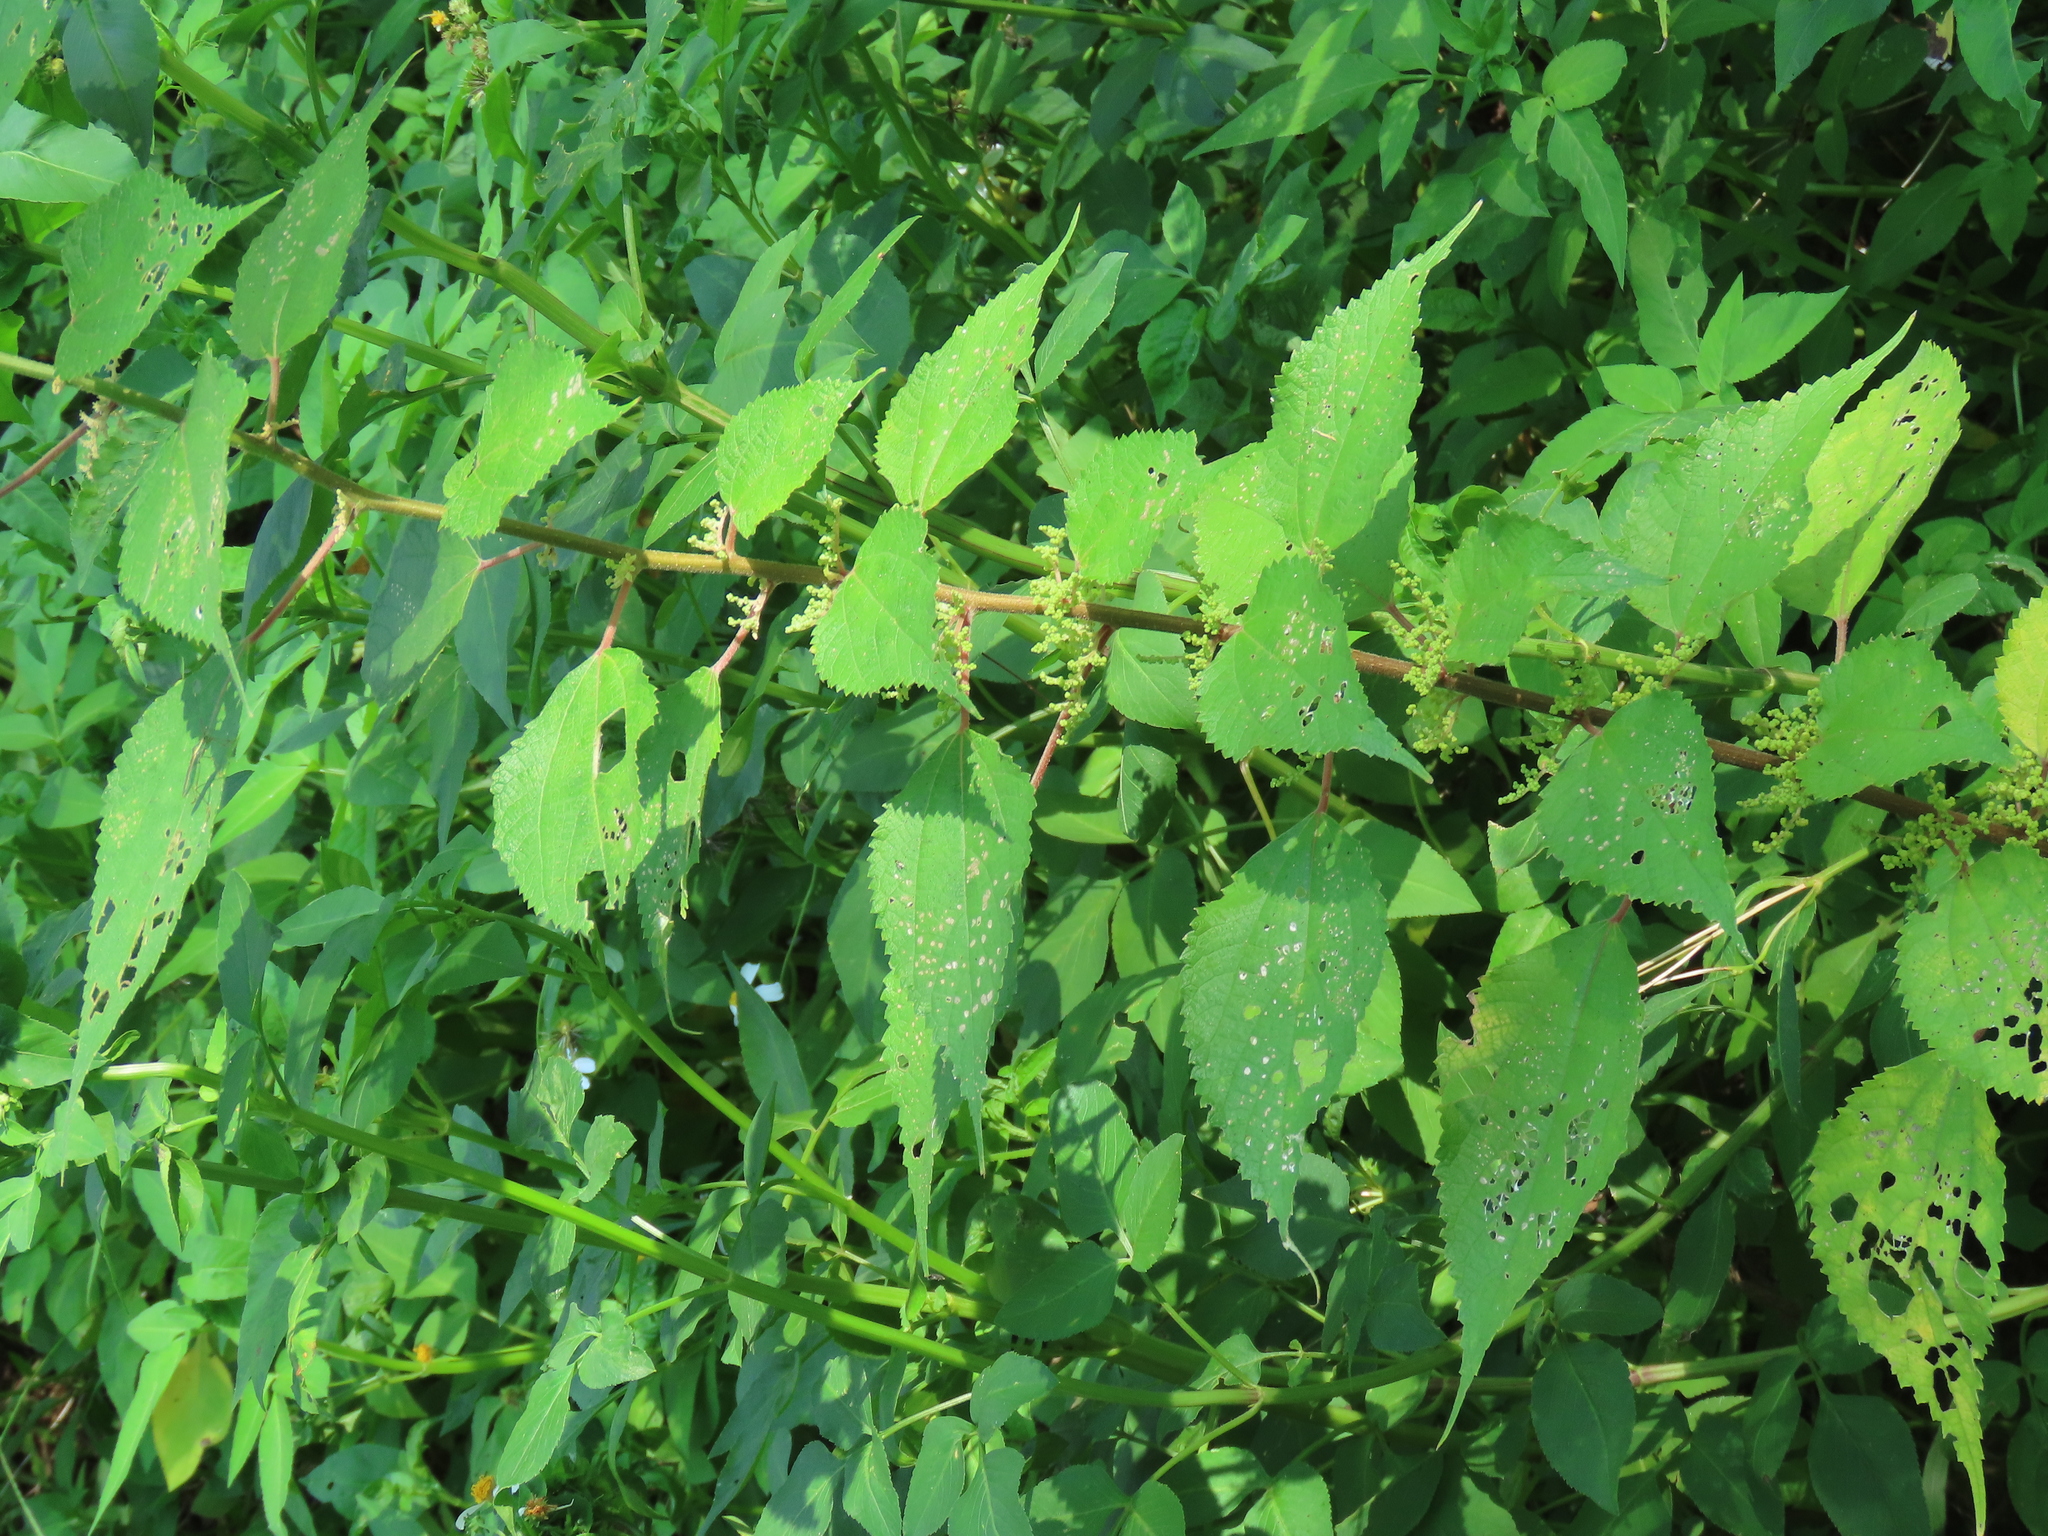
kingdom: Plantae
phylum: Tracheophyta
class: Magnoliopsida
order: Rosales
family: Urticaceae
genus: Boehmeria
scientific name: Boehmeria nivea
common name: Ramie chinese grass
